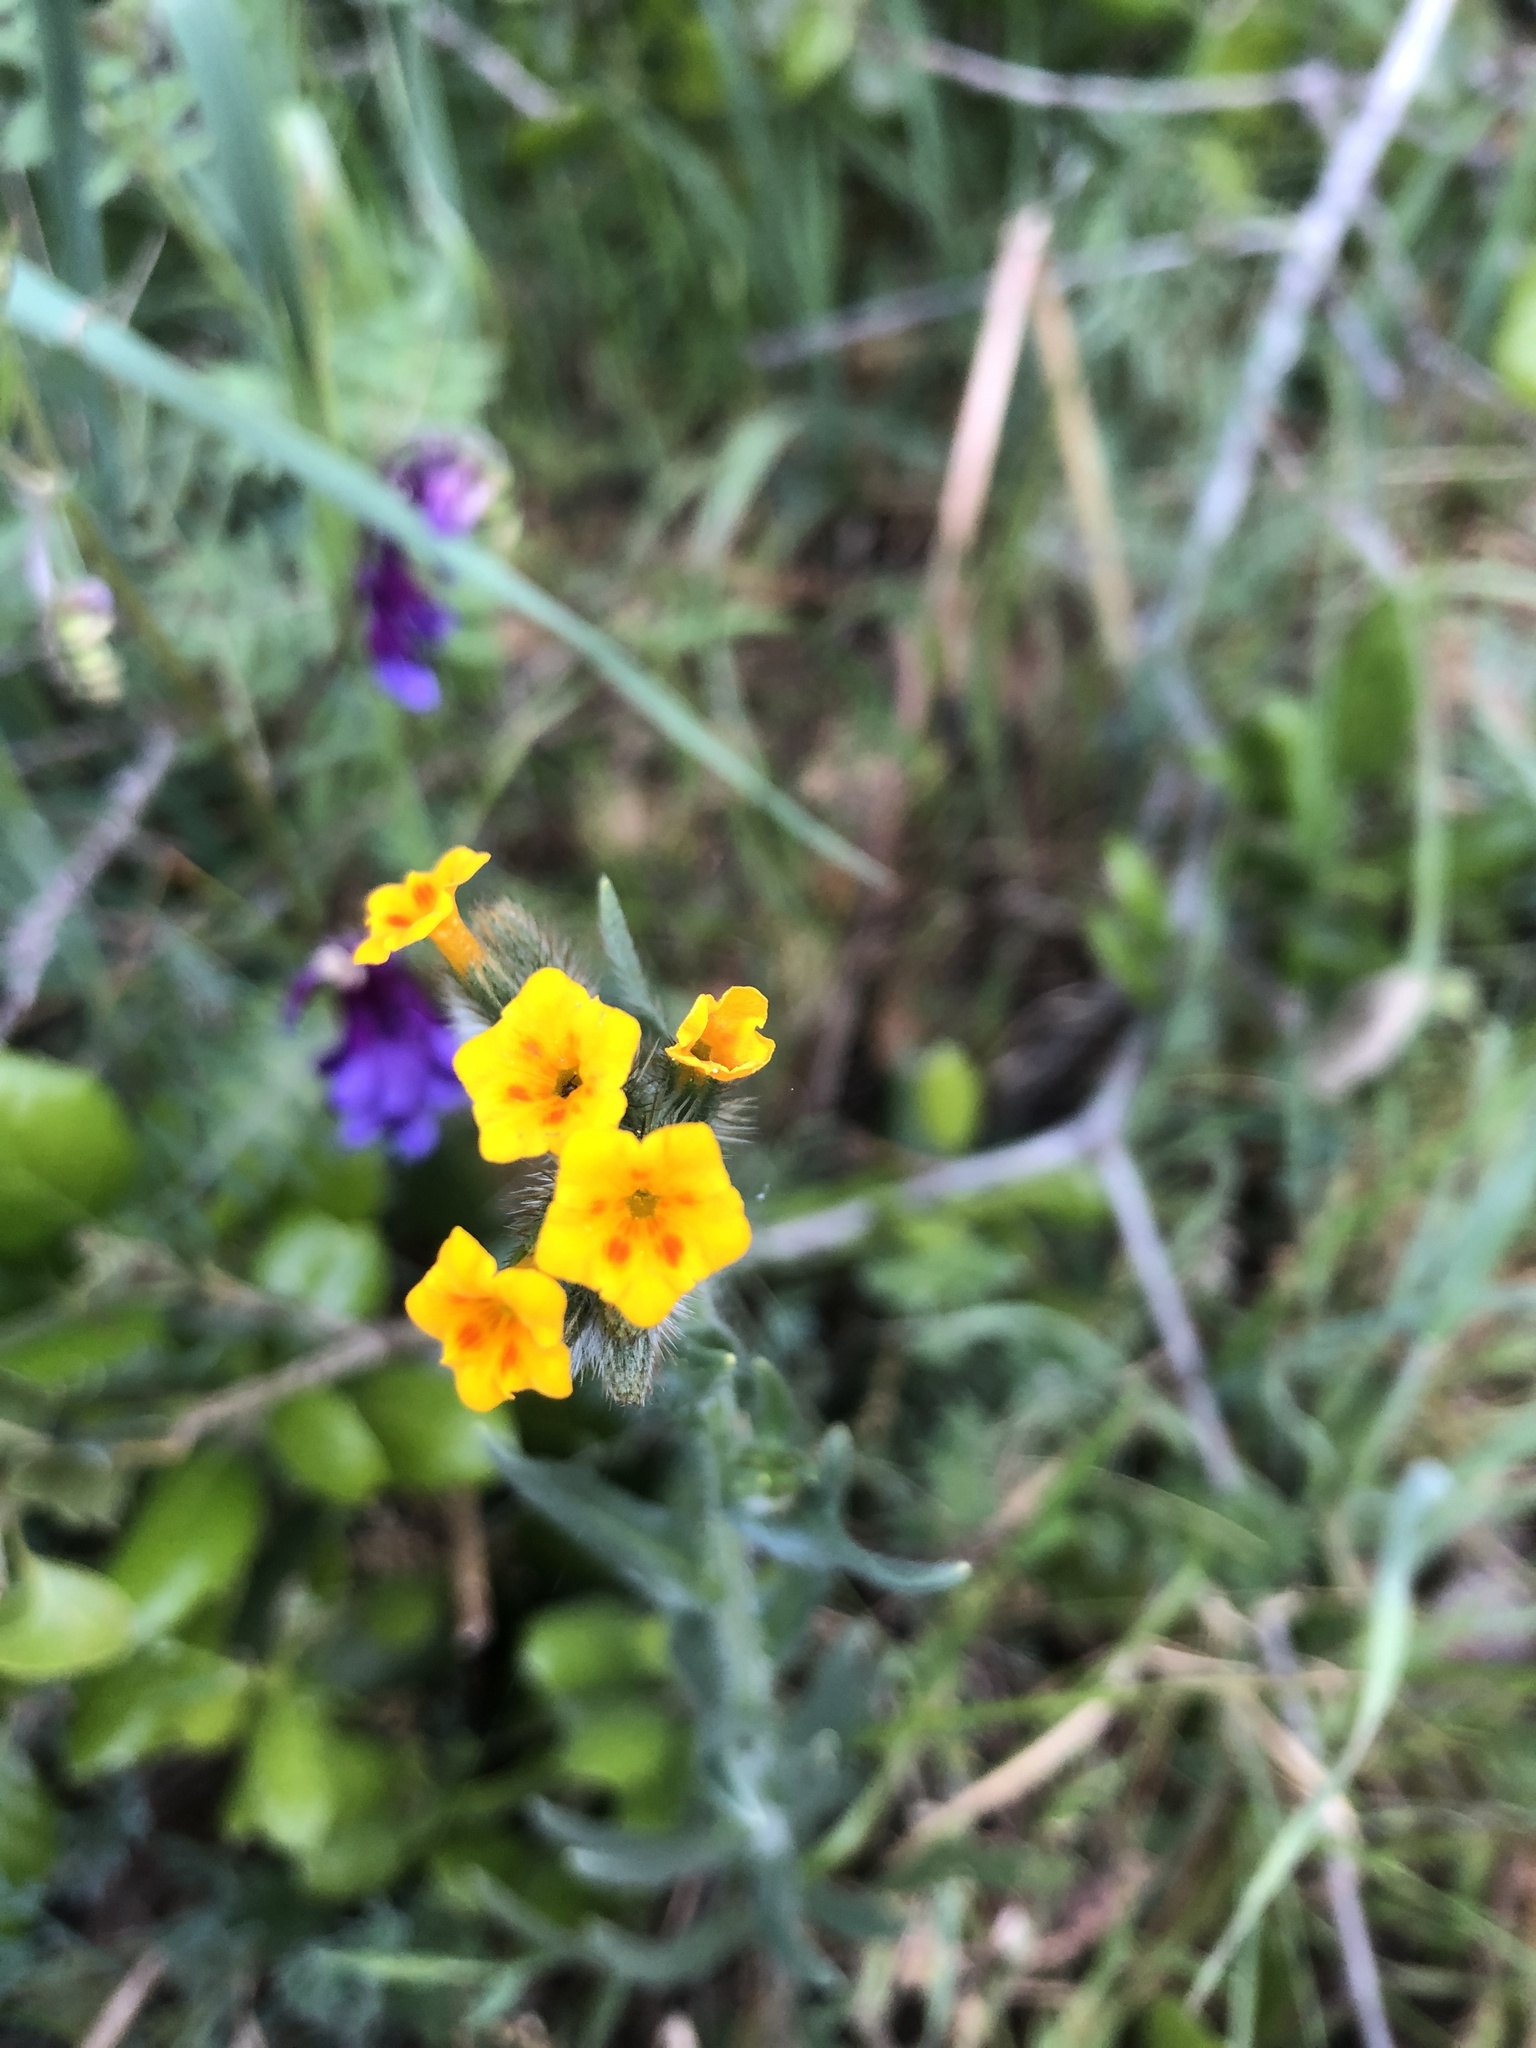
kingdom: Plantae
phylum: Tracheophyta
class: Magnoliopsida
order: Boraginales
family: Boraginaceae
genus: Amsinckia
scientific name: Amsinckia menziesii
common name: Menzies' fiddleneck
